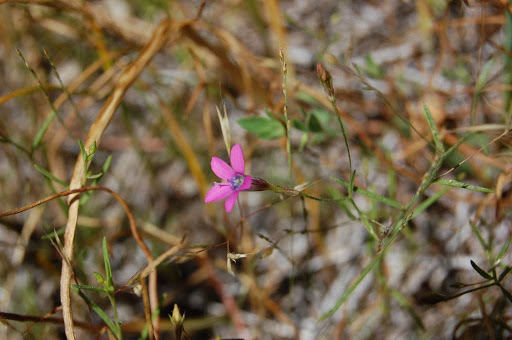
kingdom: Plantae
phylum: Tracheophyta
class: Magnoliopsida
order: Ericales
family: Polemoniaceae
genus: Navarretia
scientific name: Navarretia leptalea
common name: Bridges' pincushionplant
